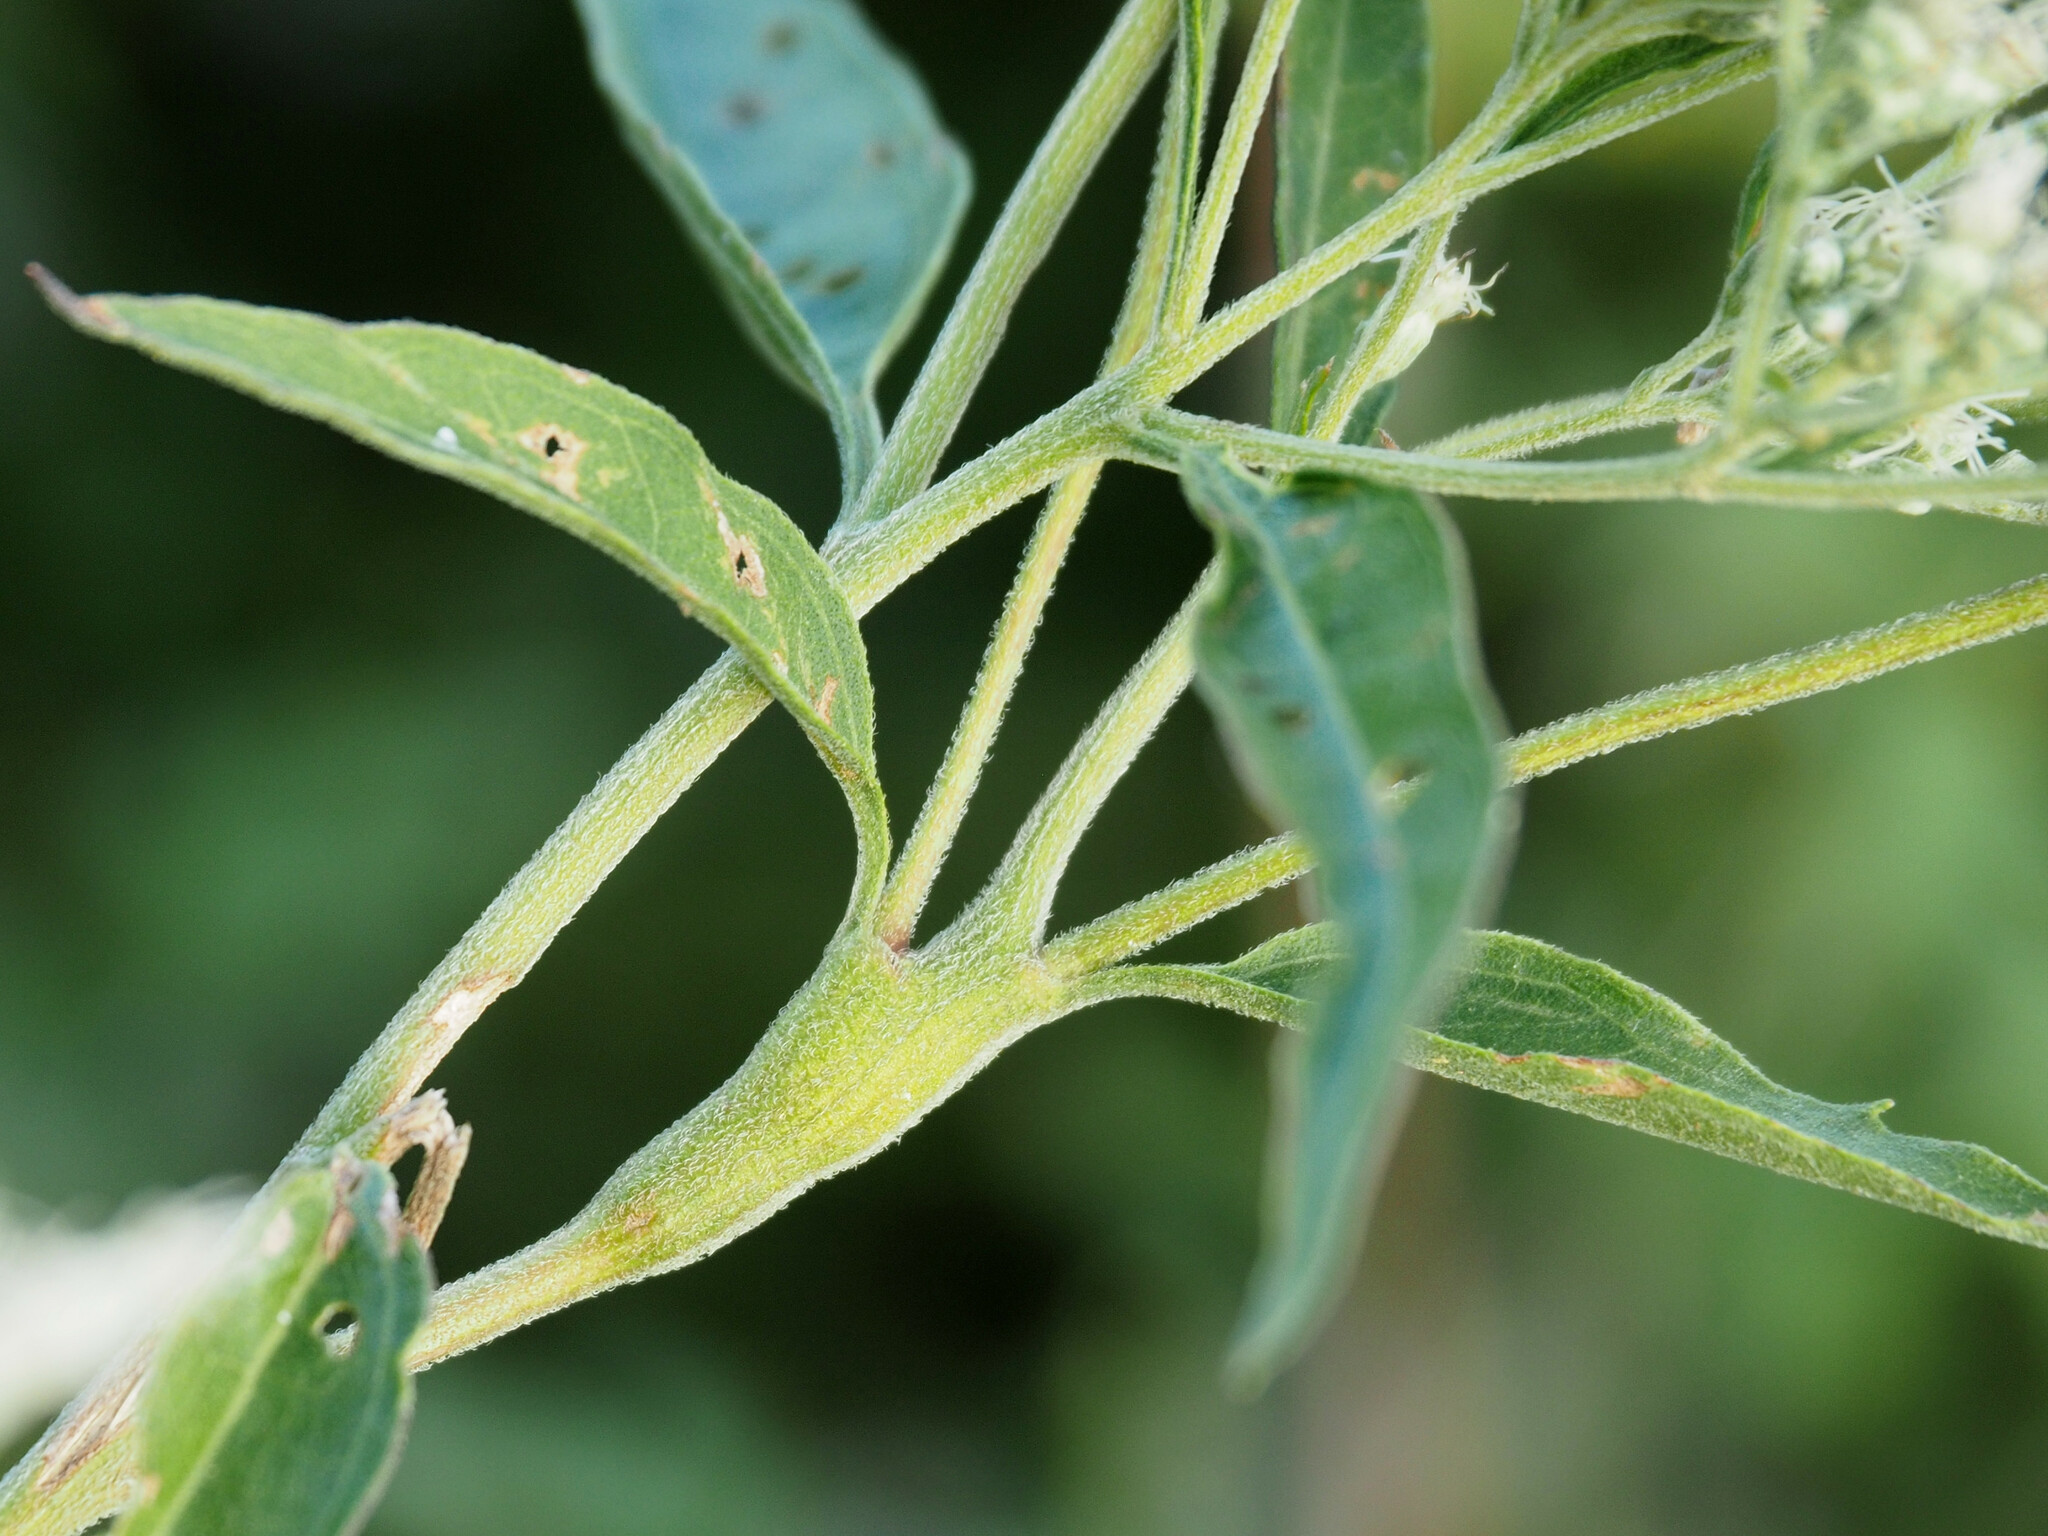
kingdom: Animalia
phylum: Arthropoda
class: Insecta
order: Diptera
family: Cecidomyiidae
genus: Neolasioptera
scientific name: Neolasioptera perfoliata
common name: Boneset stem midge
